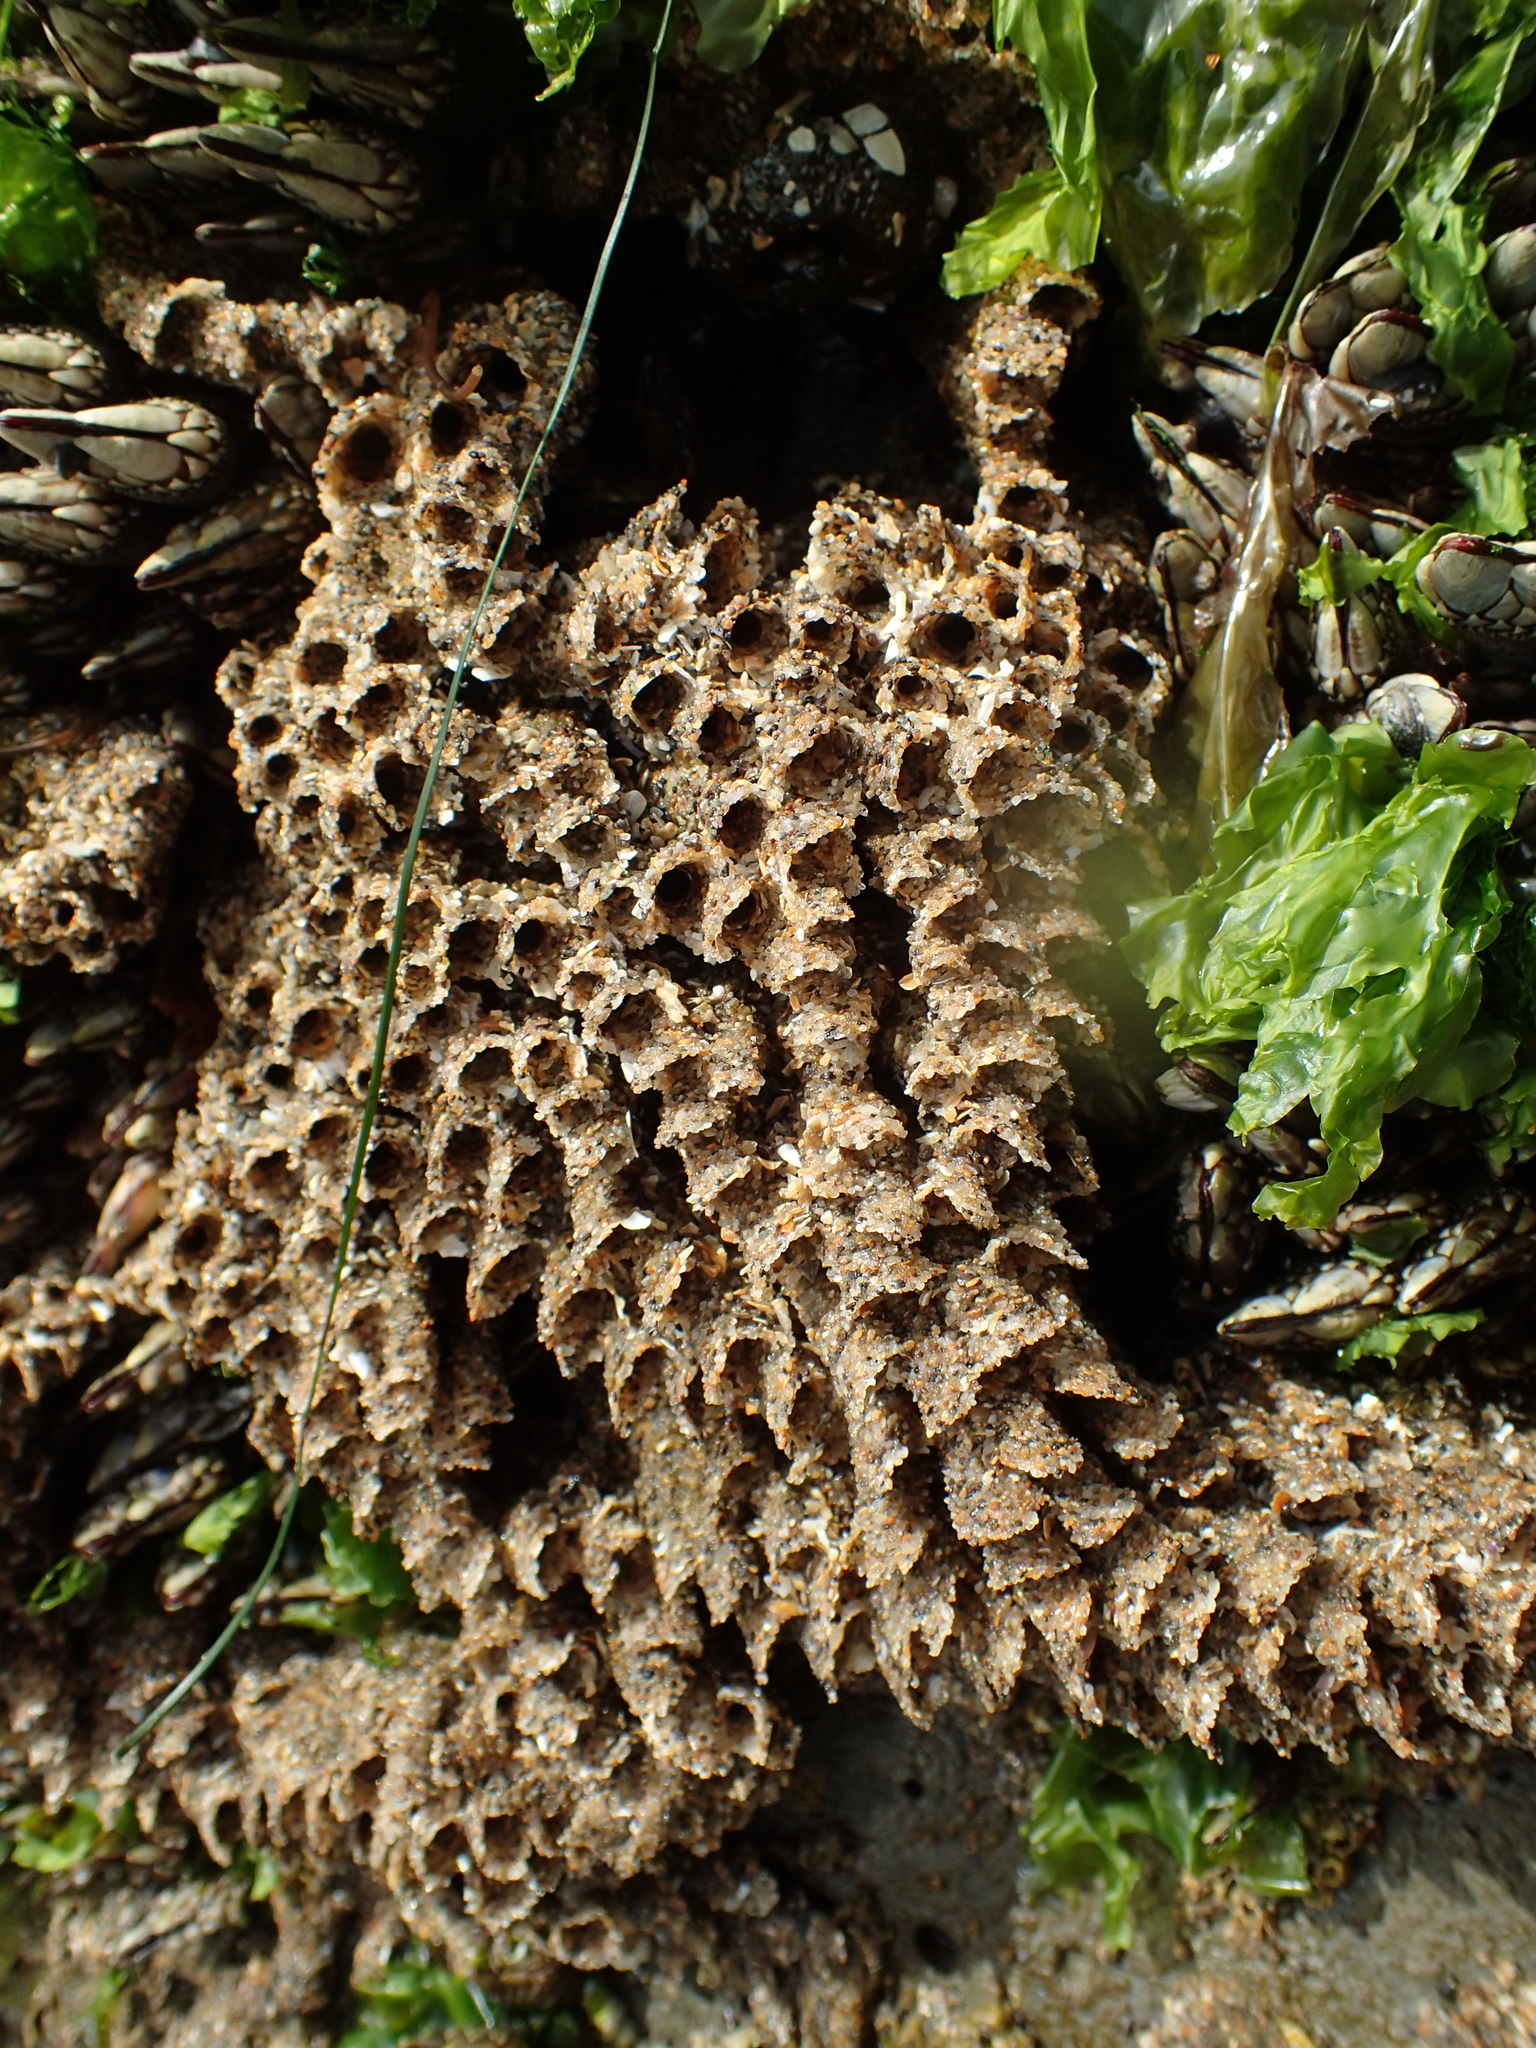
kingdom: Animalia
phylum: Annelida
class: Polychaeta
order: Sabellida
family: Sabellariidae
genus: Phragmatopoma
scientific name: Phragmatopoma californica
